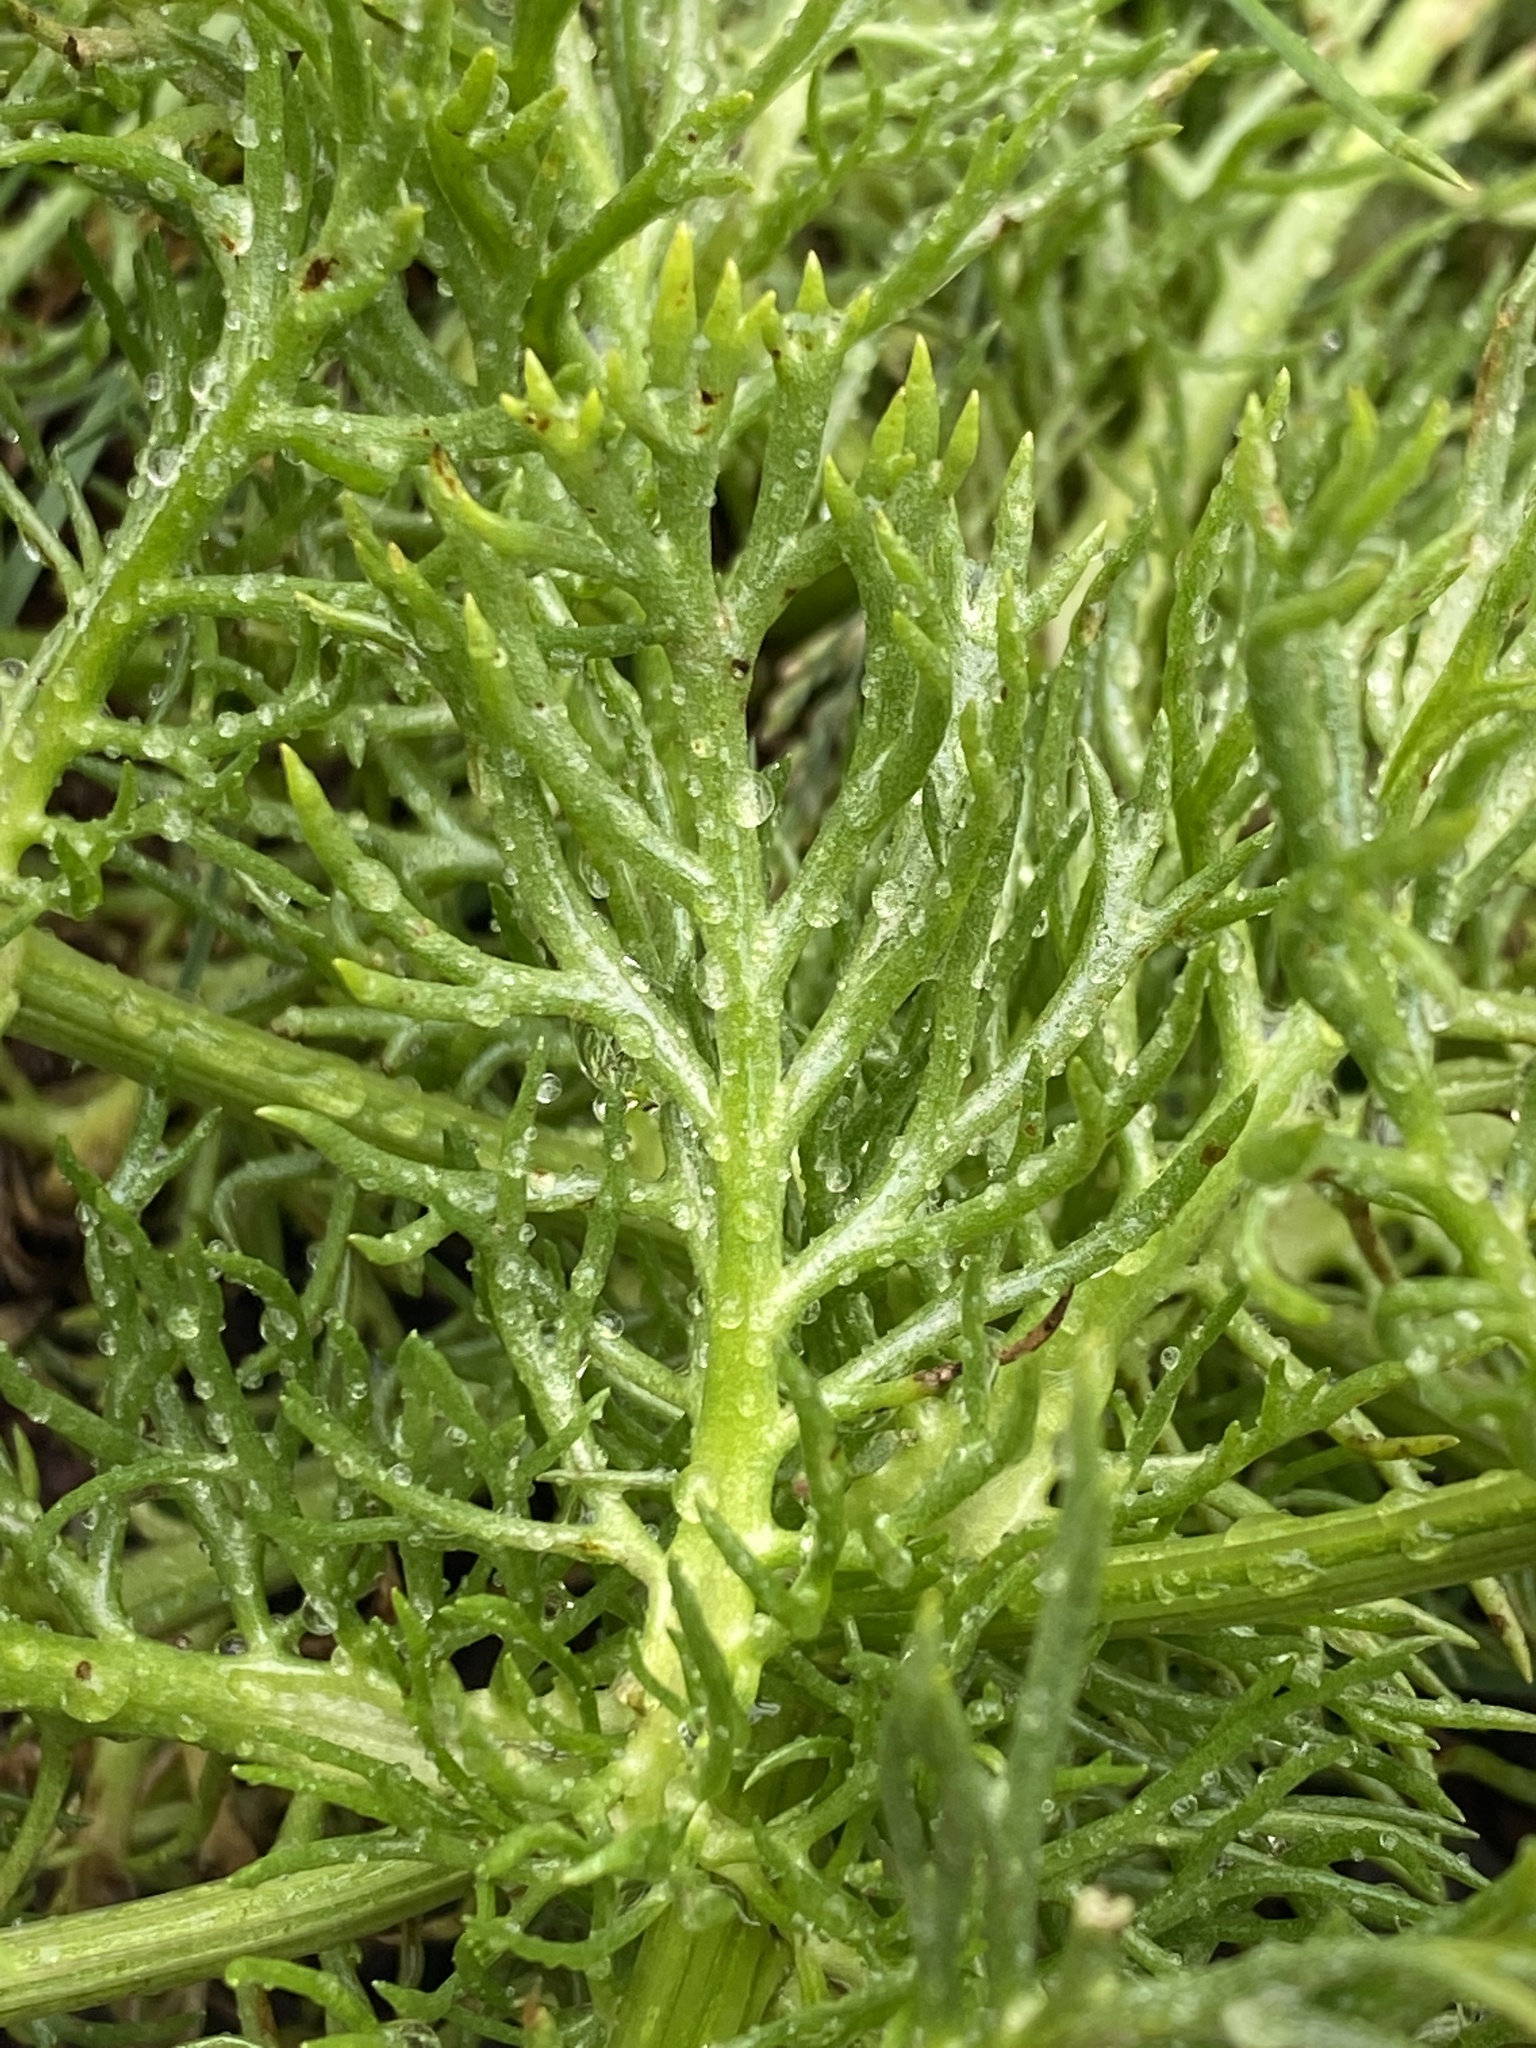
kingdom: Plantae
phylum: Tracheophyta
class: Magnoliopsida
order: Asterales
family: Asteraceae
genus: Tripleurospermum
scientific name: Tripleurospermum maritimum
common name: Sea mayweed
